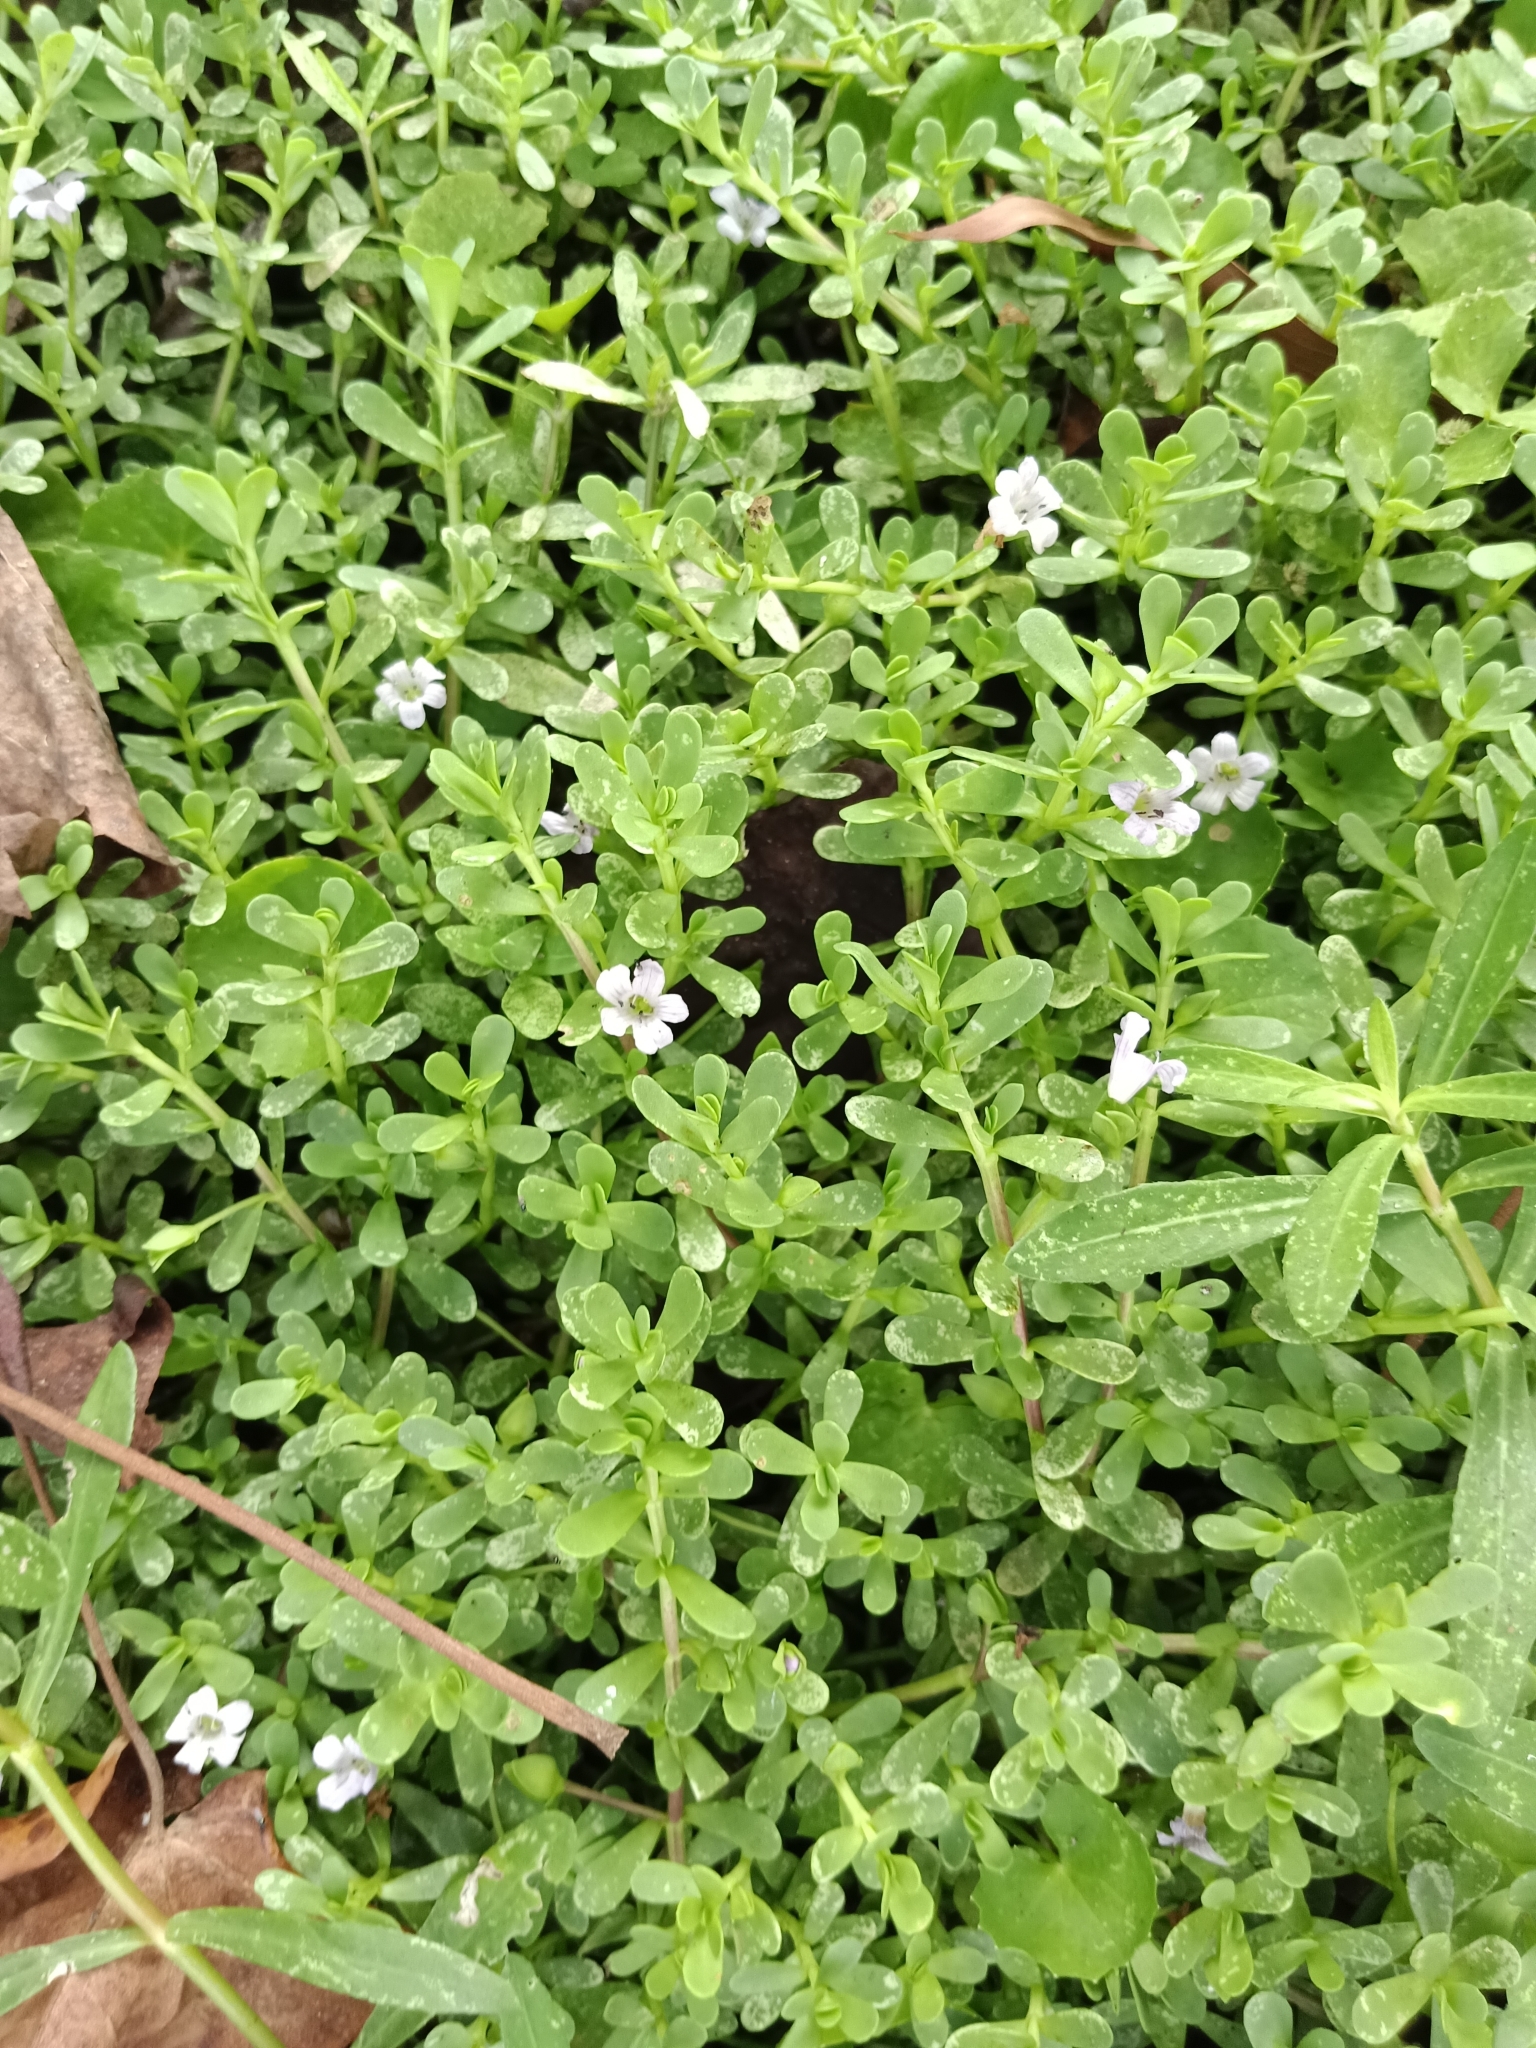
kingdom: Plantae
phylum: Tracheophyta
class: Magnoliopsida
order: Lamiales
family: Plantaginaceae
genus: Bacopa
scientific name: Bacopa monnieri
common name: Indian-pennywort
